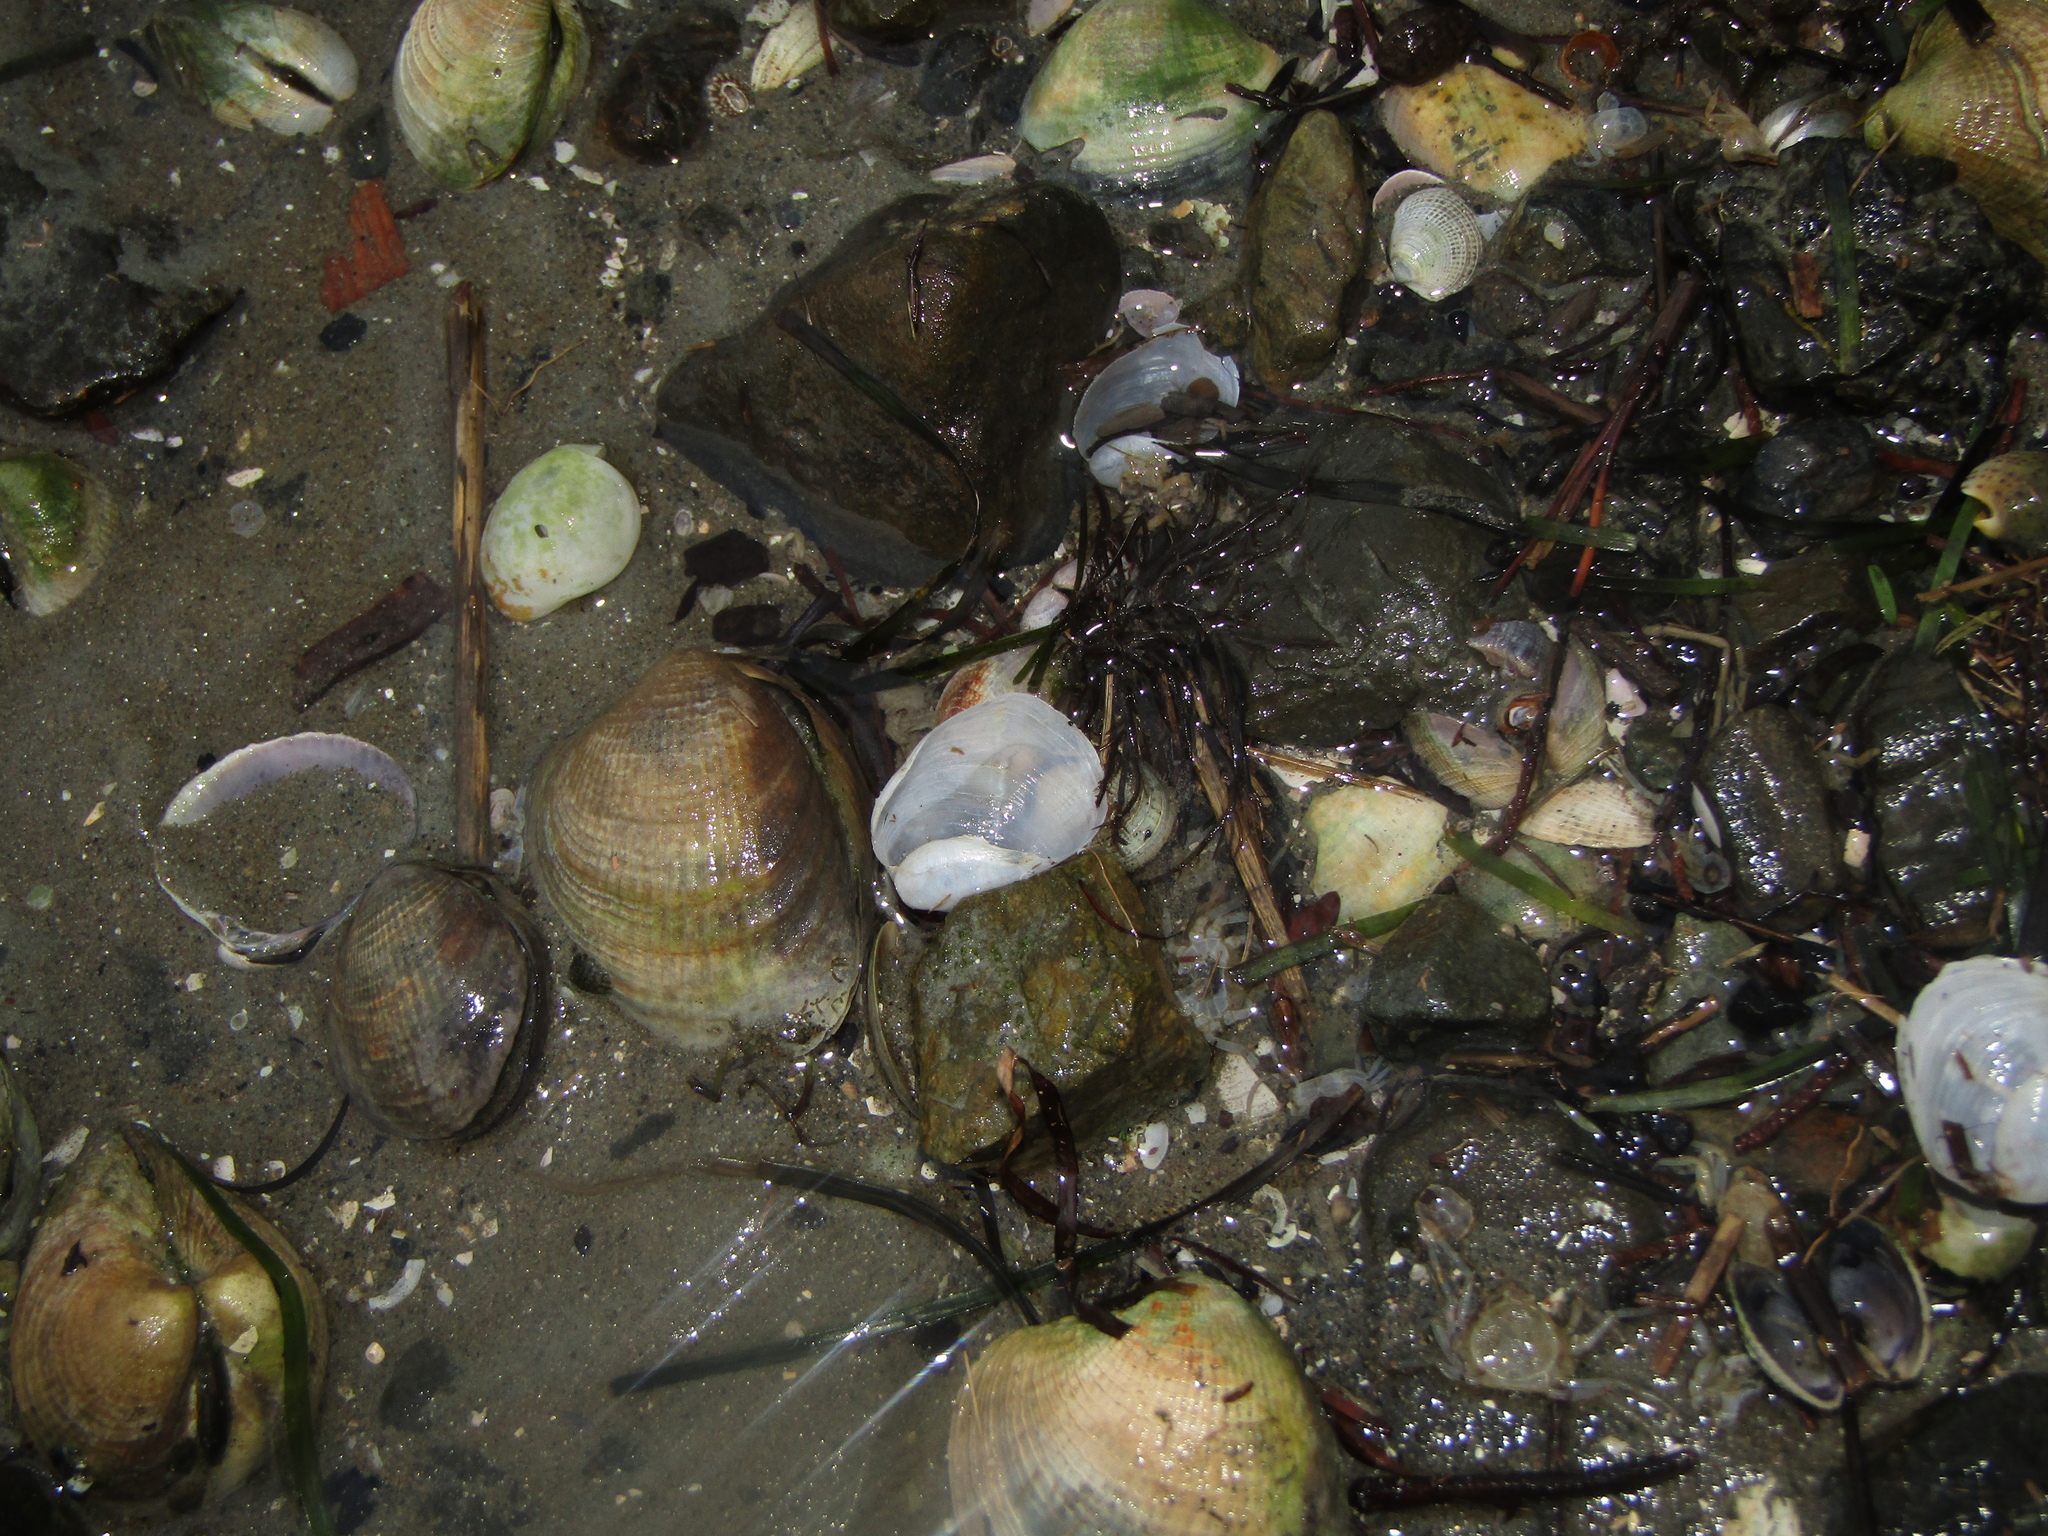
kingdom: Animalia
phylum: Mollusca
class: Gastropoda
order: Cephalaspidea
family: Philinidae
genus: Philine
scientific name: Philine angasi
